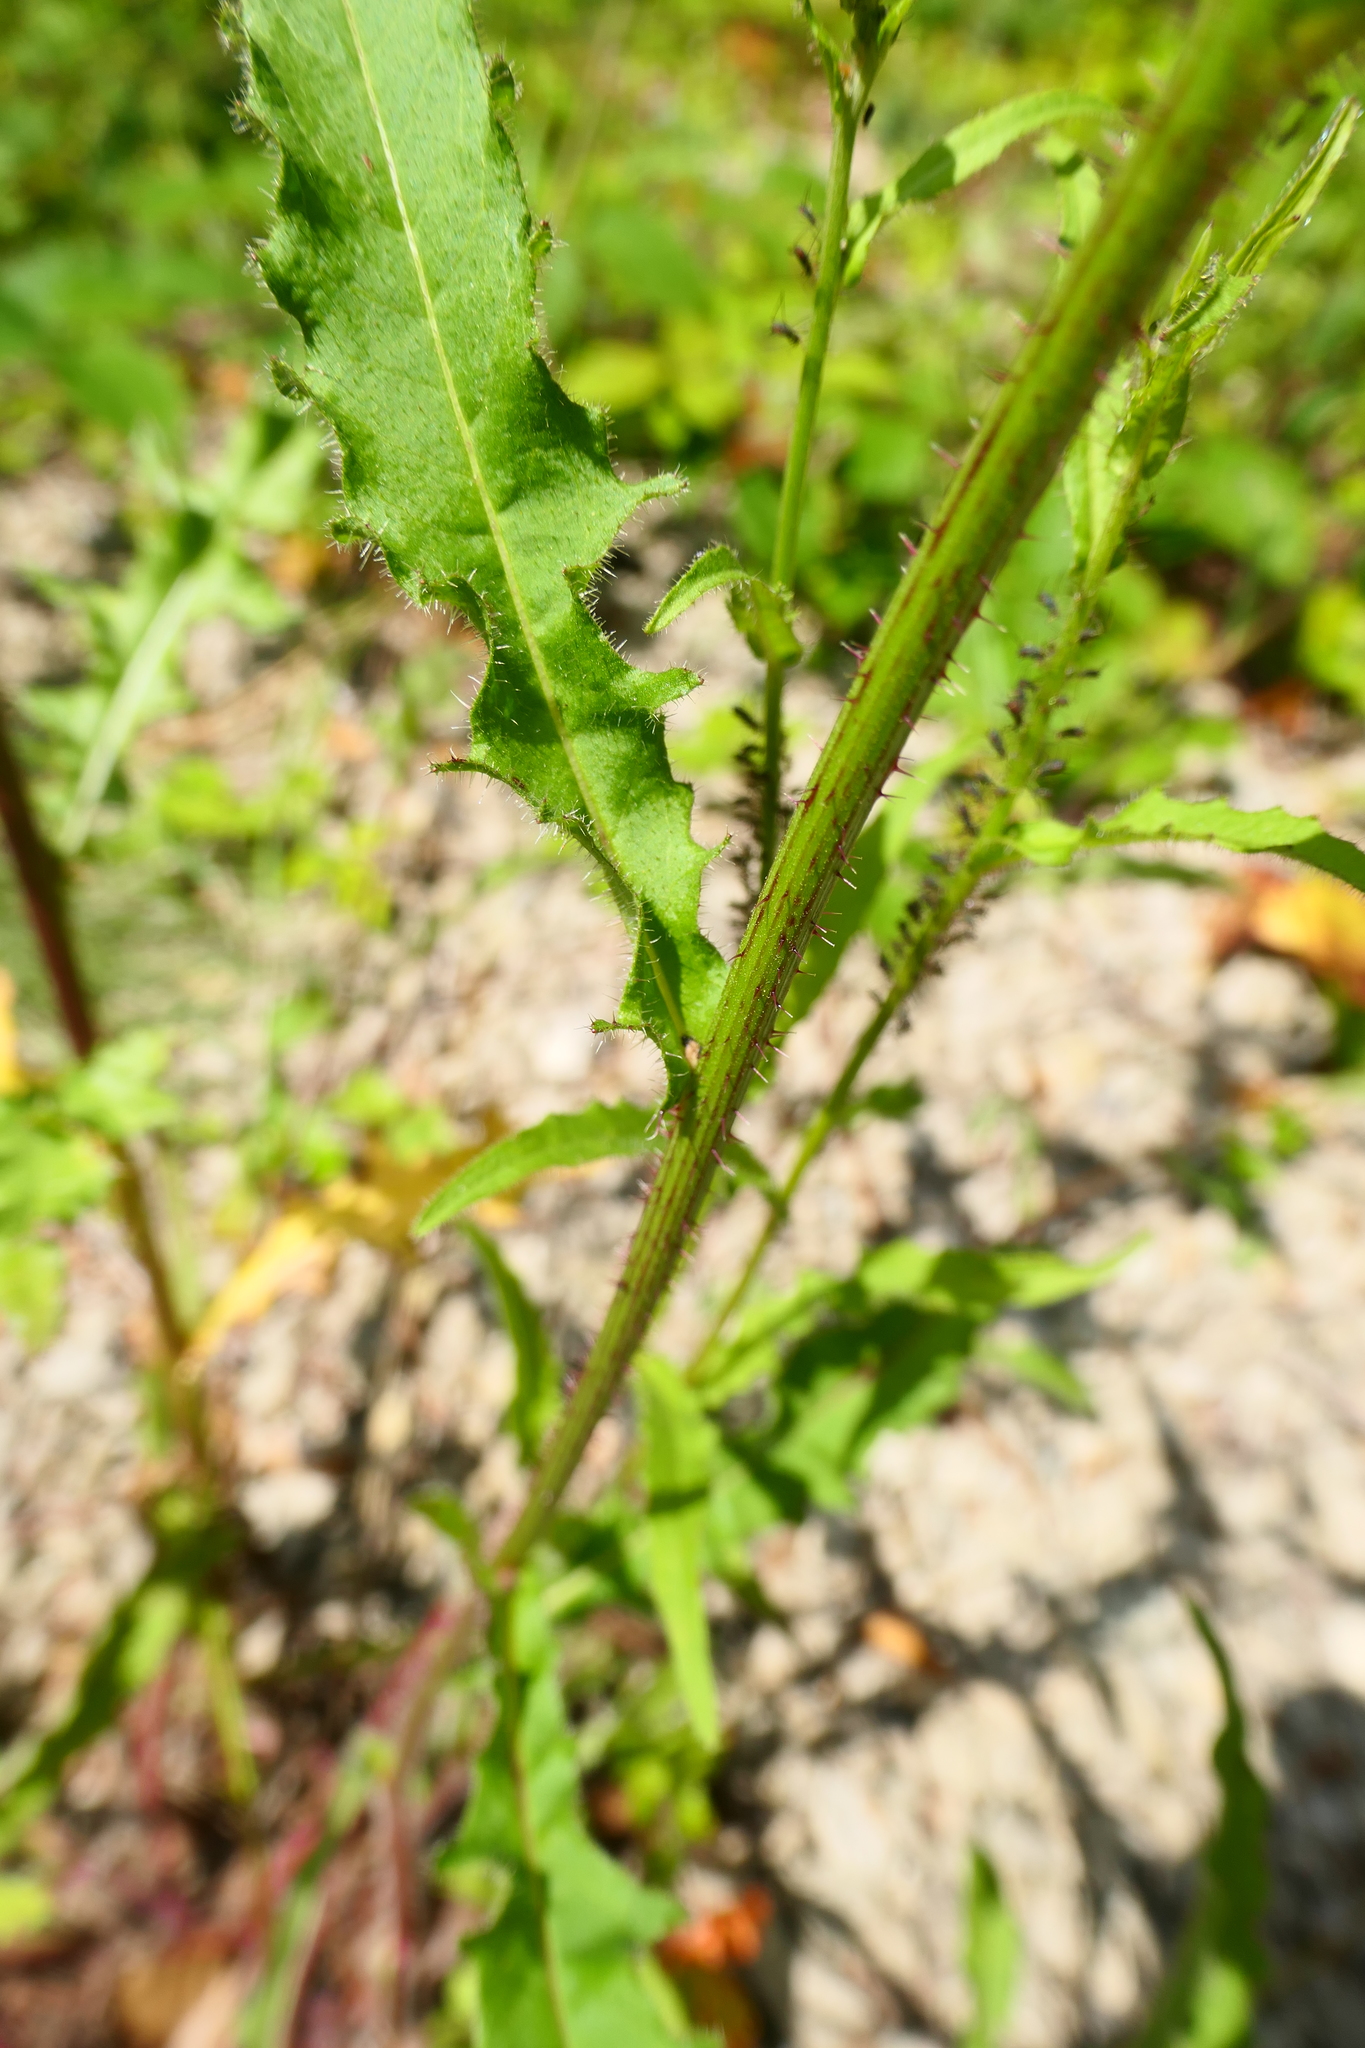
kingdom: Plantae
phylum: Tracheophyta
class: Magnoliopsida
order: Asterales
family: Asteraceae
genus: Picris
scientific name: Picris hieracioides
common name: Hawkweed oxtongue
